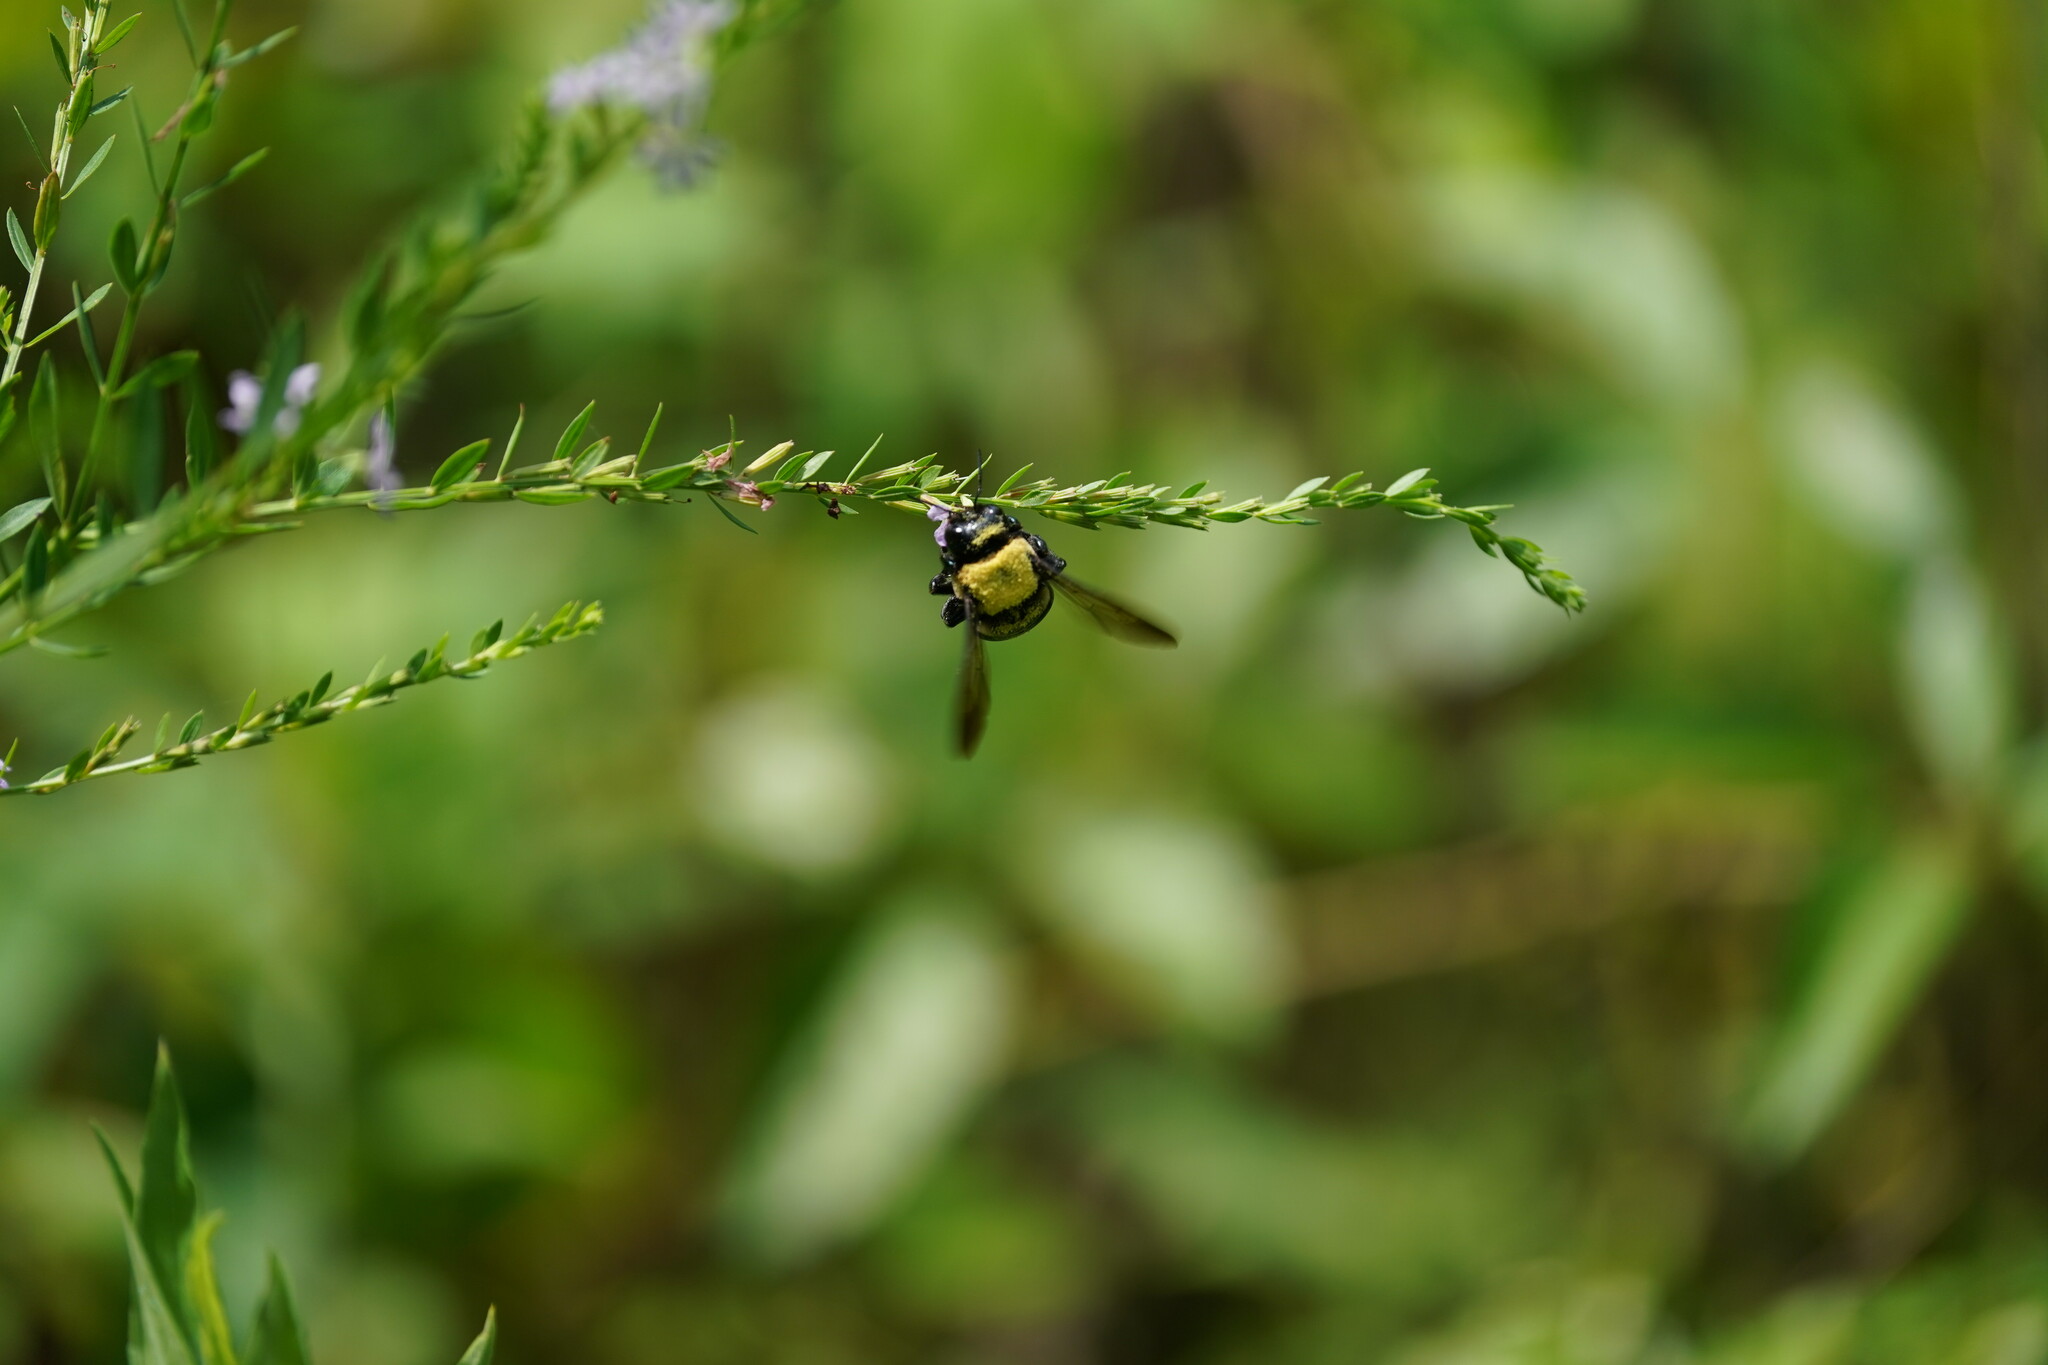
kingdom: Animalia
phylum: Arthropoda
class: Insecta
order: Hymenoptera
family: Apidae
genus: Xylocopa
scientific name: Xylocopa virginica
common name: Carpenter bee
